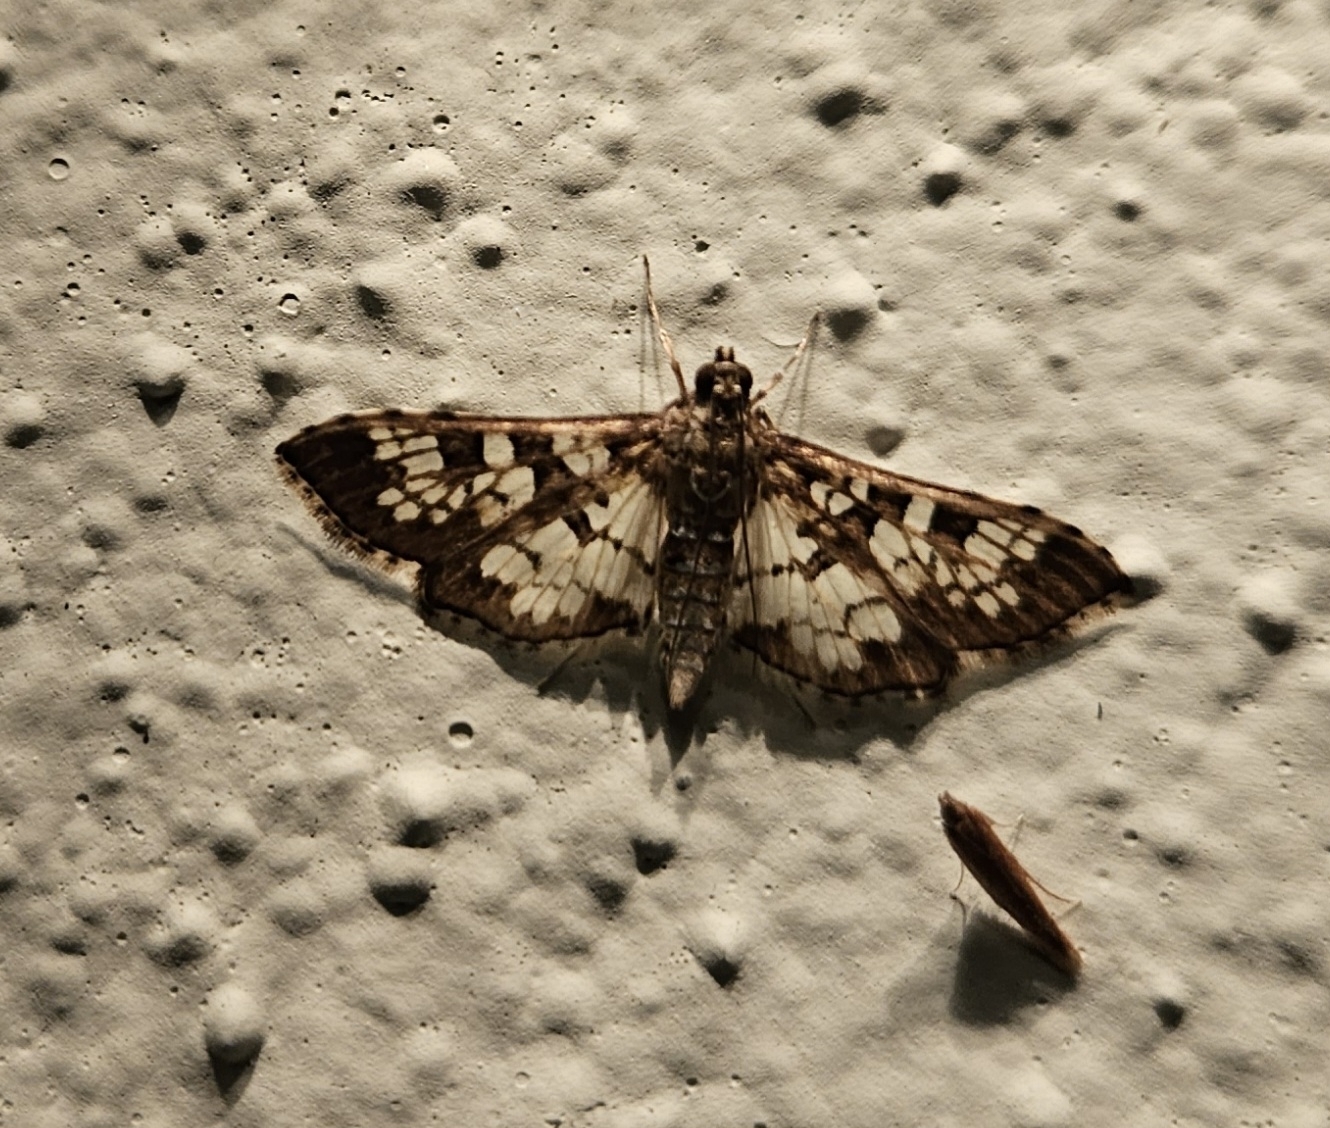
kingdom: Animalia
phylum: Arthropoda
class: Insecta
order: Lepidoptera
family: Crambidae
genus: Samea
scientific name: Samea ecclesialis
